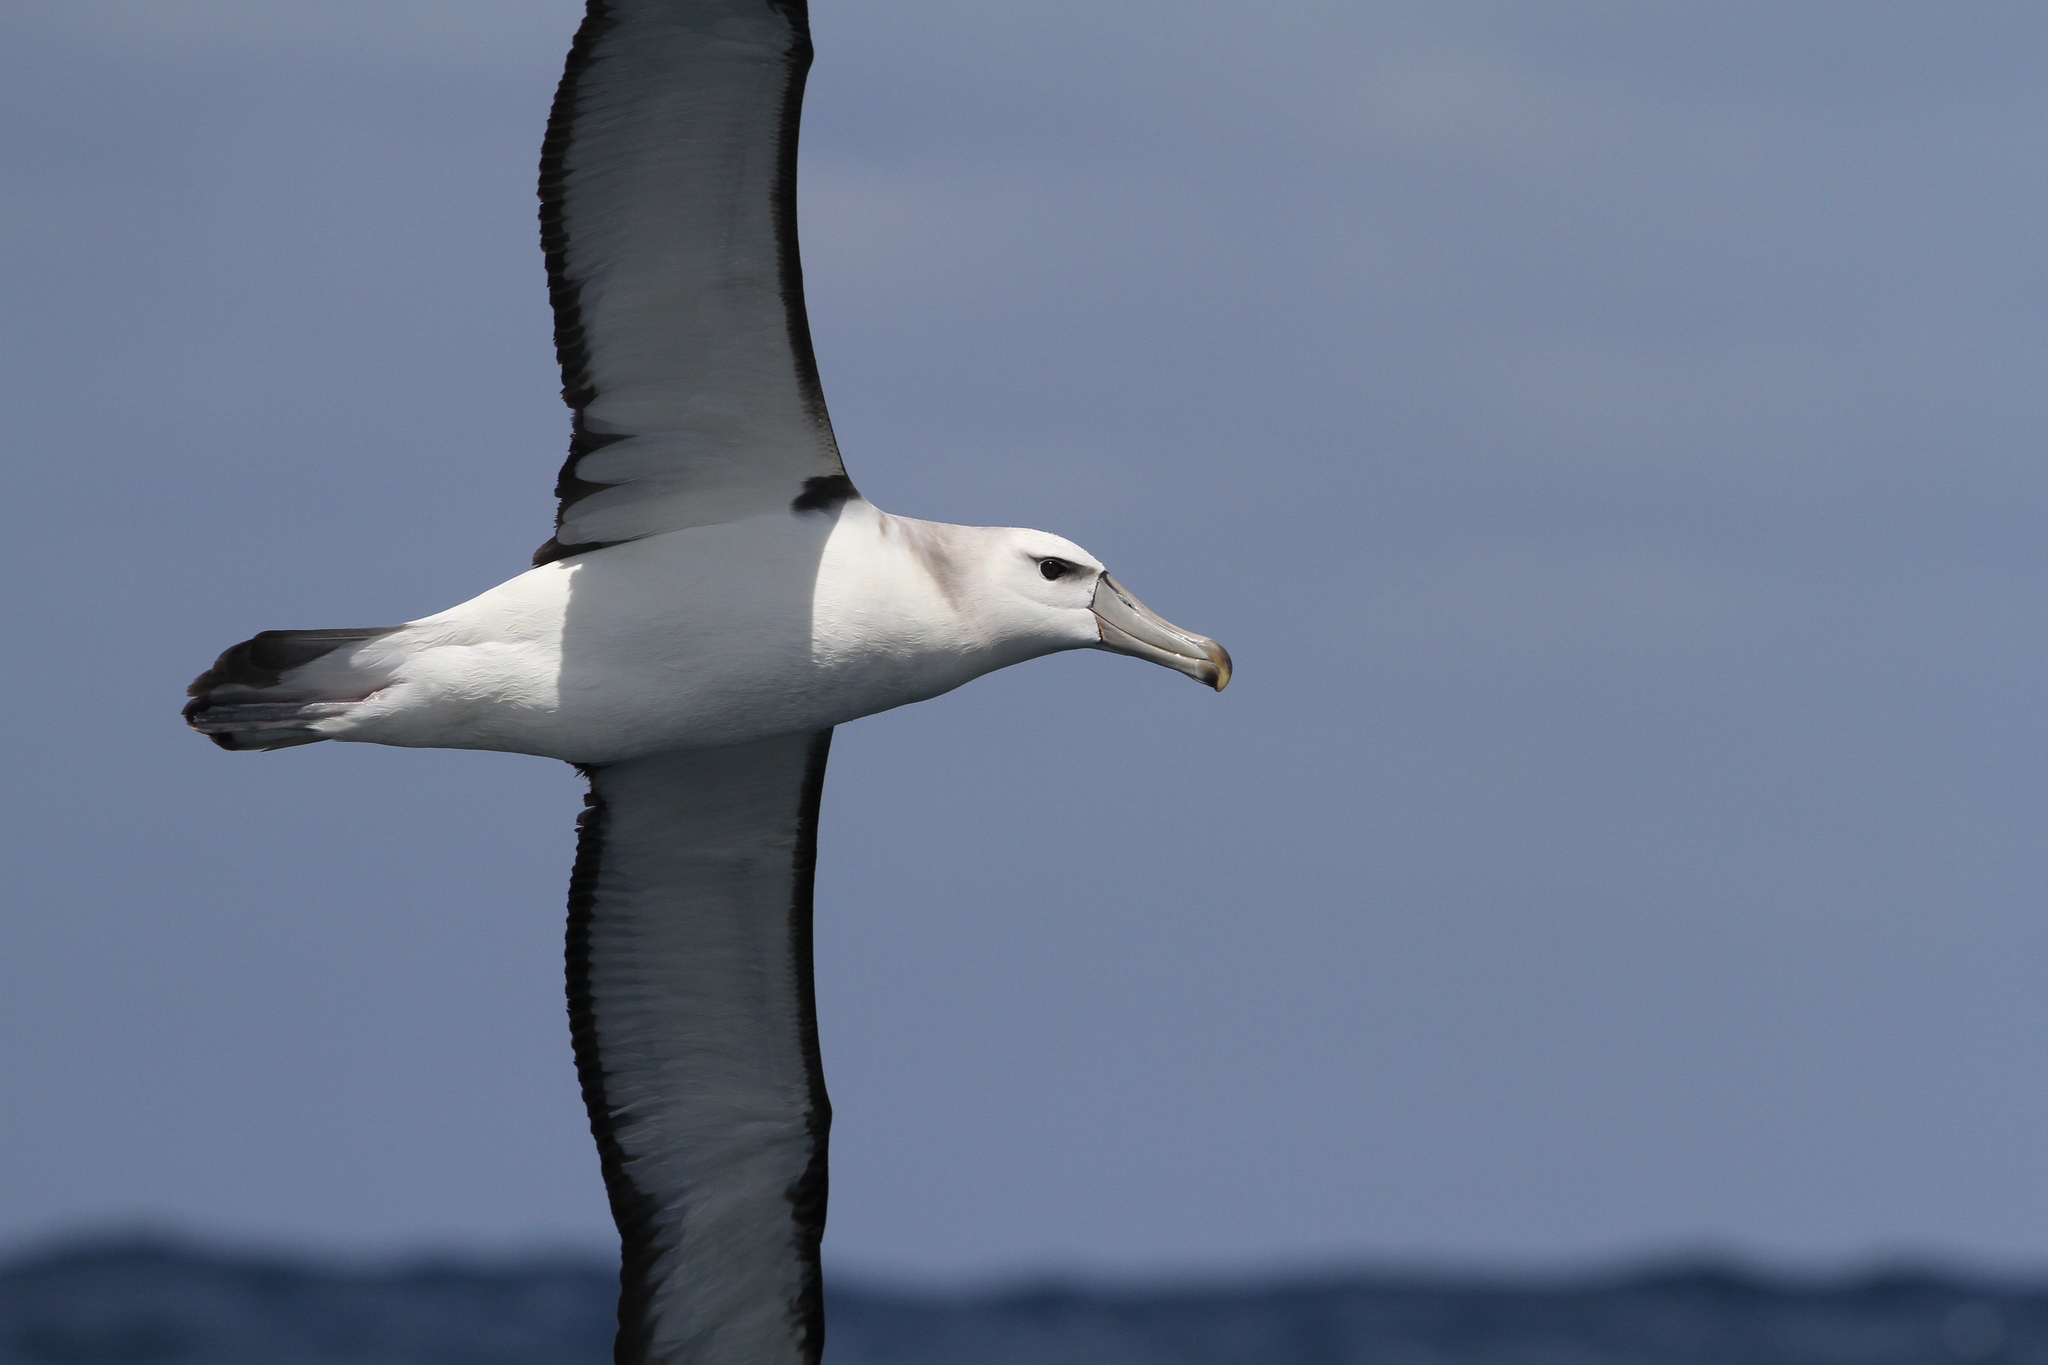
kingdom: Animalia
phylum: Chordata
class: Aves
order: Procellariiformes
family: Diomedeidae
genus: Thalassarche
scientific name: Thalassarche cauta
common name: Shy albatross
